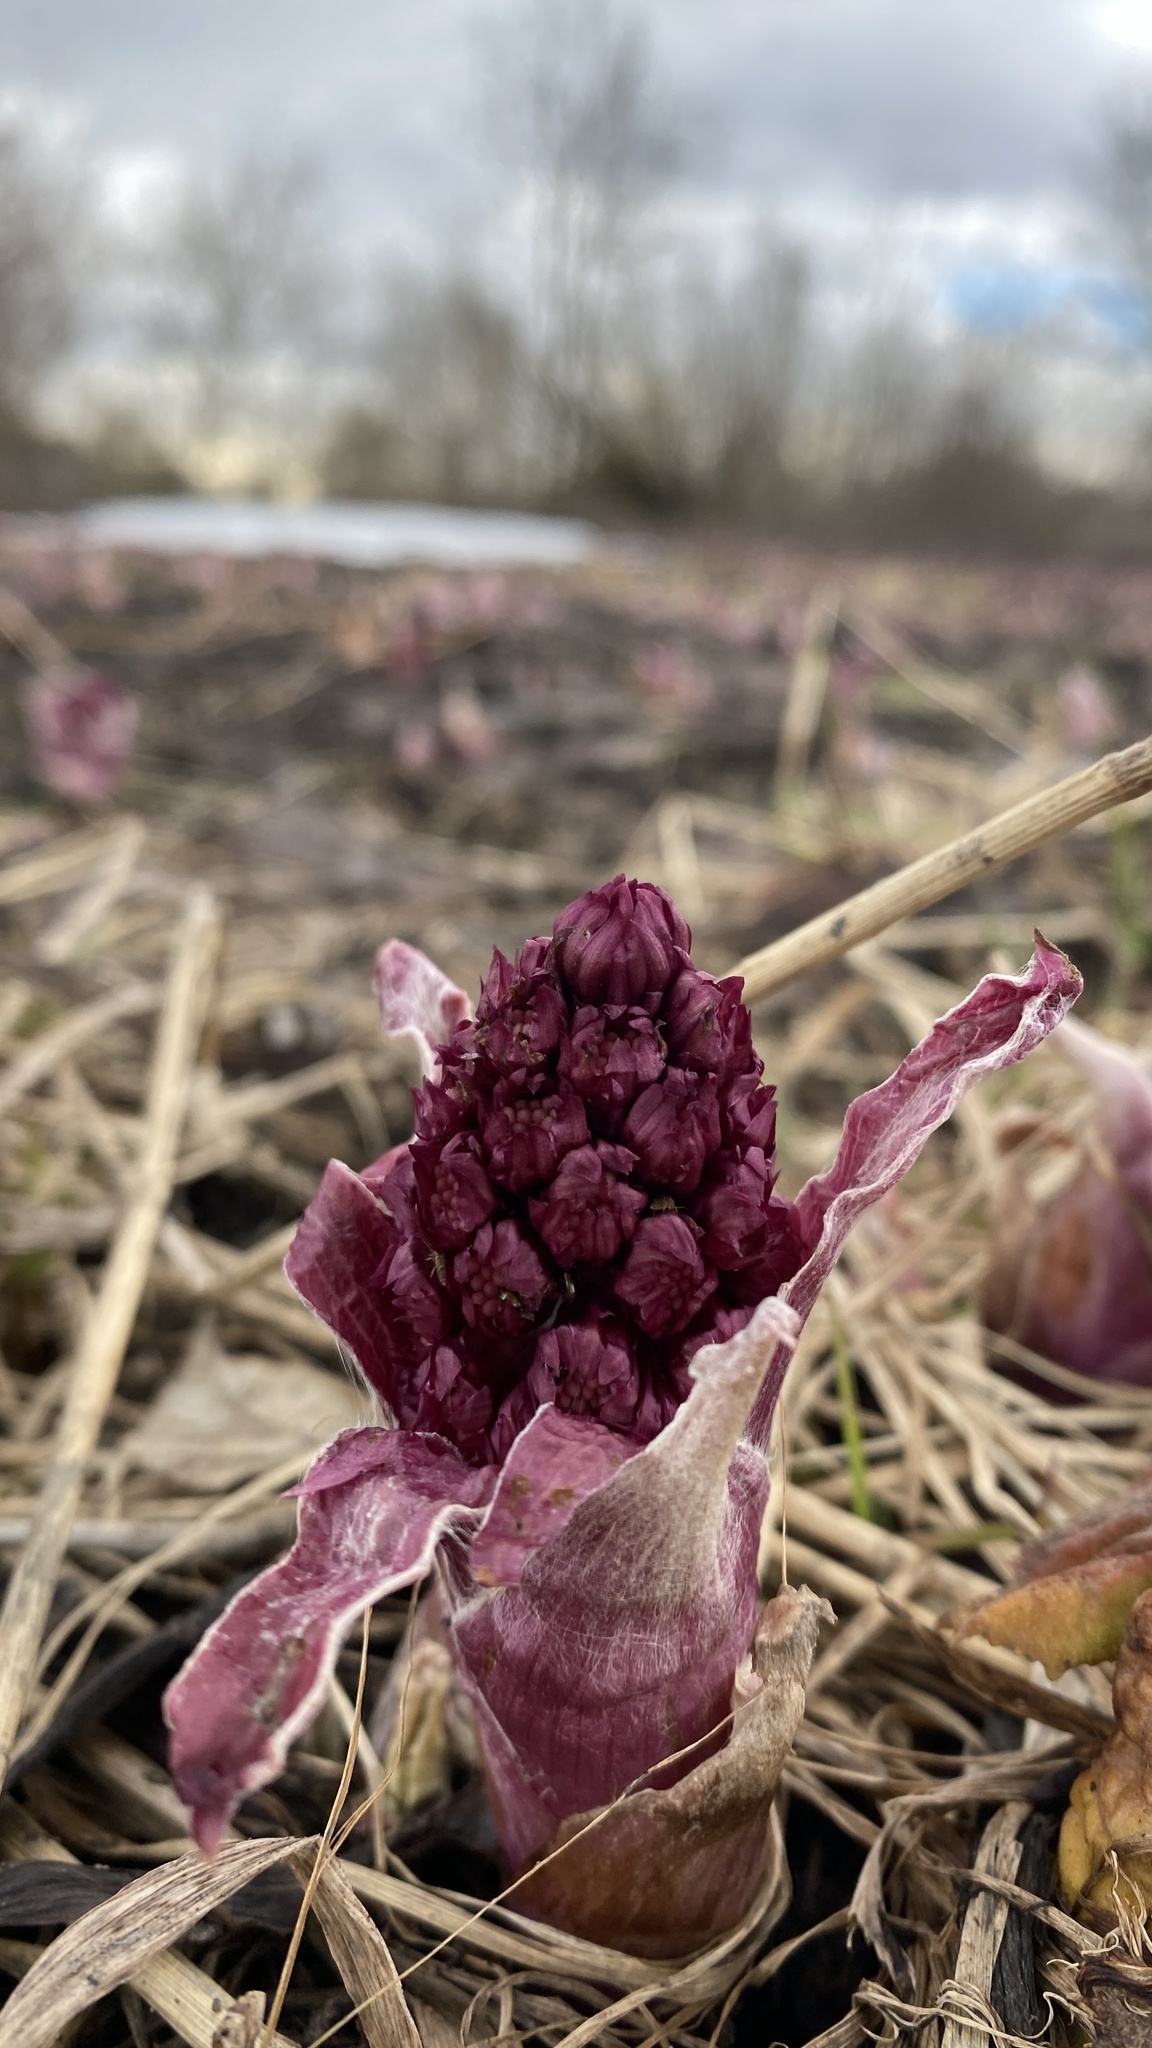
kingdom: Plantae
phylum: Tracheophyta
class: Magnoliopsida
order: Asterales
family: Asteraceae
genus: Petasites
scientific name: Petasites hybridus
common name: Butterbur
